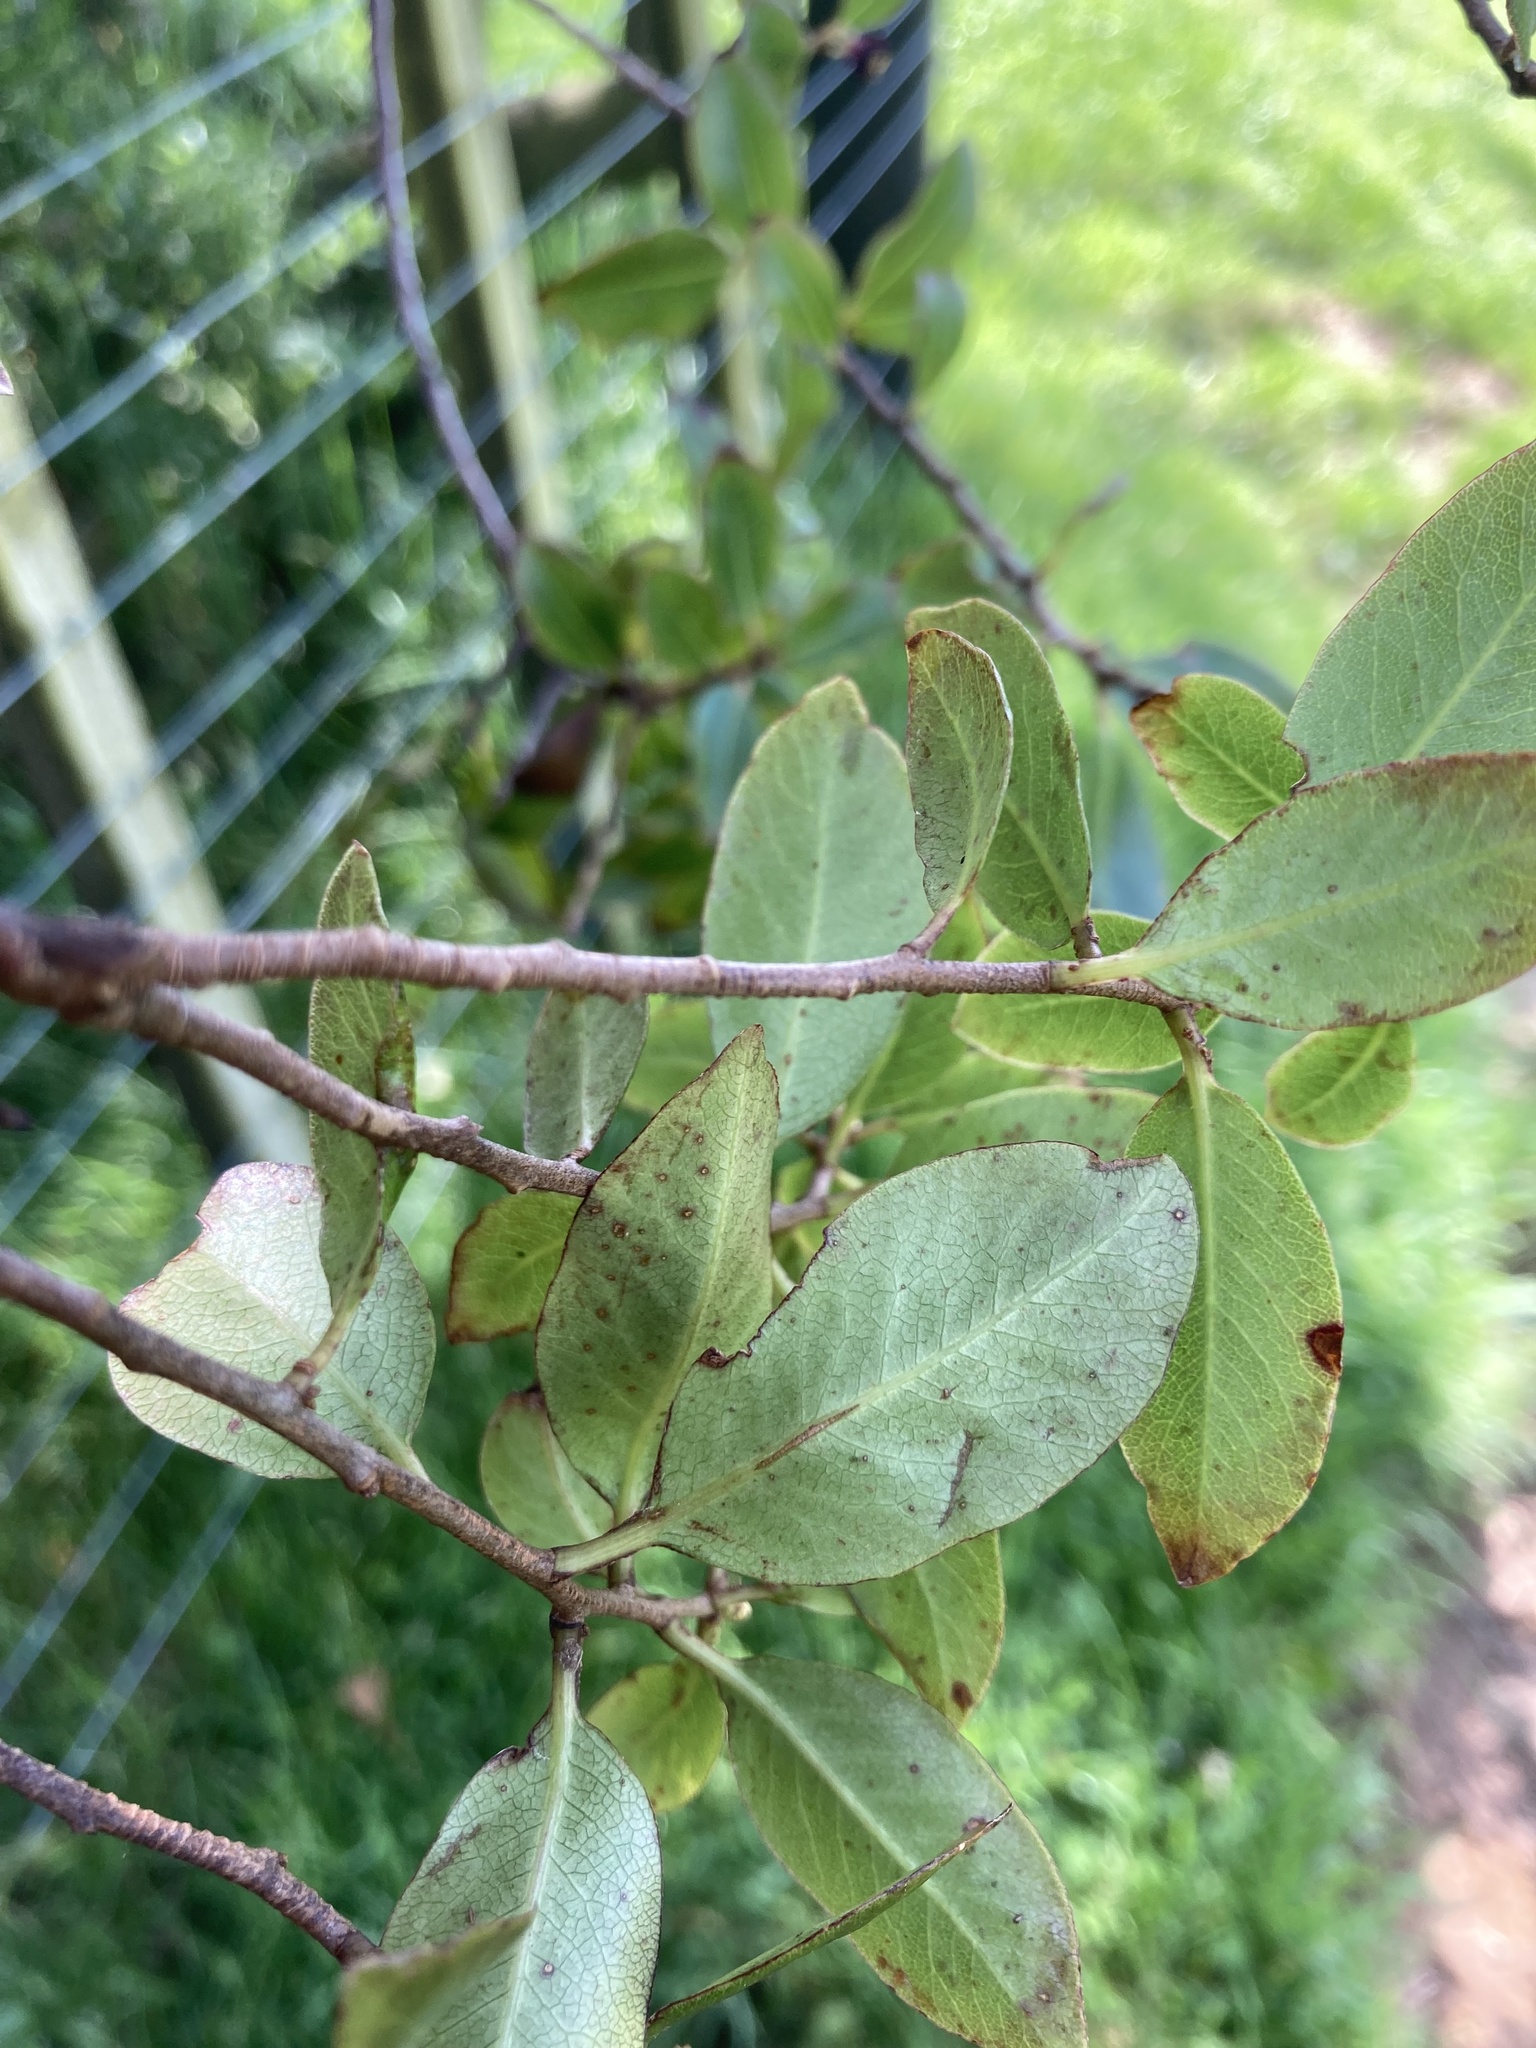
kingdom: Plantae
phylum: Tracheophyta
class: Magnoliopsida
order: Apiales
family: Pittosporaceae
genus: Pittosporum
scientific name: Pittosporum tenuifolium
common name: Kohuhu
